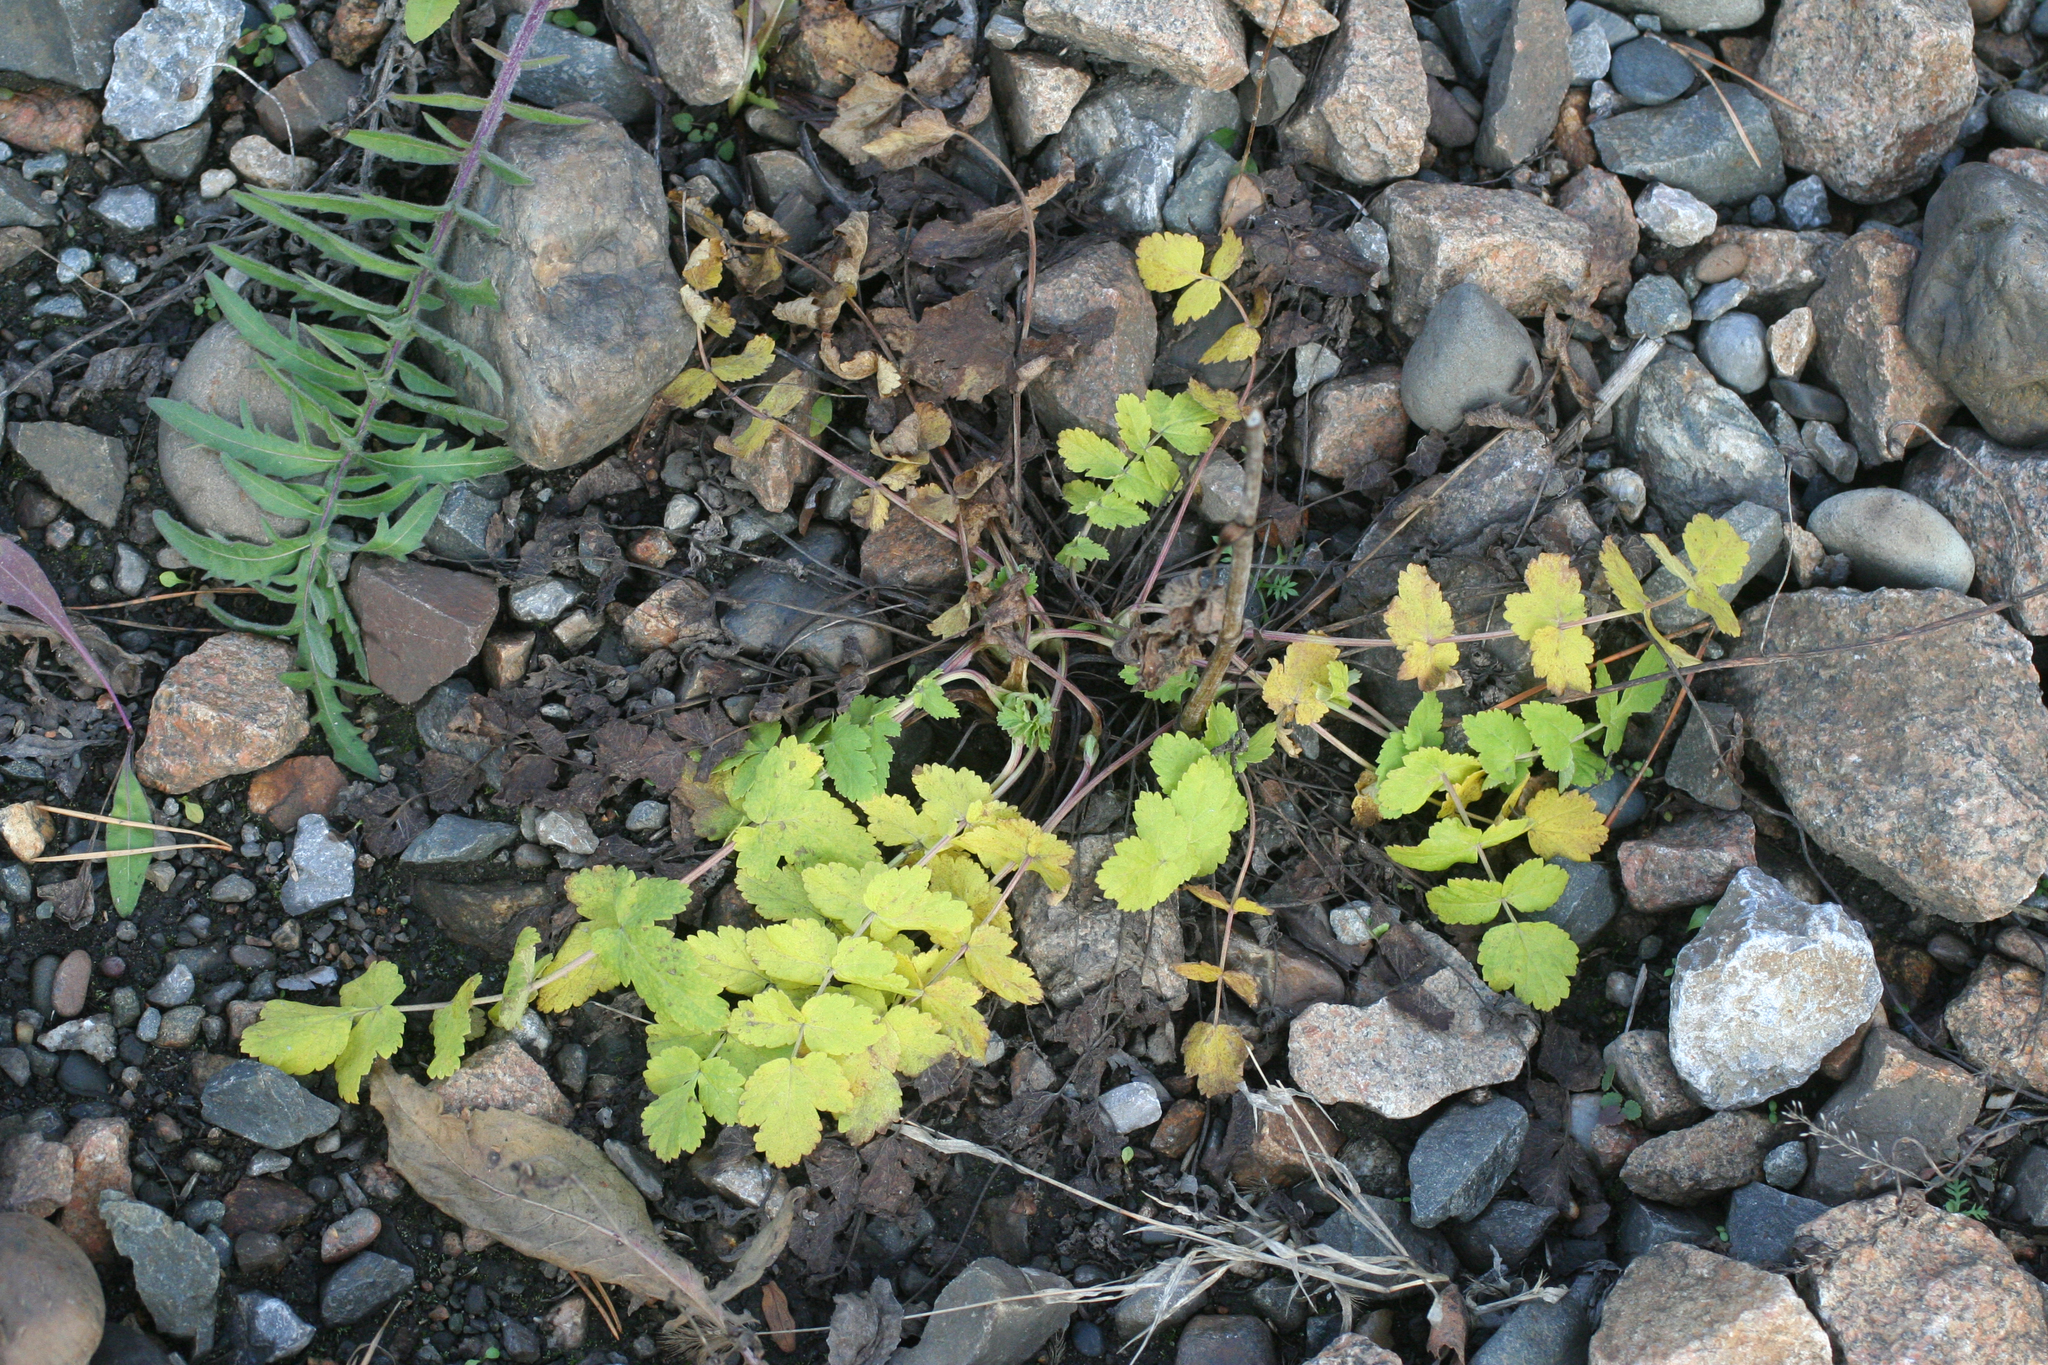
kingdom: Plantae
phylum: Tracheophyta
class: Magnoliopsida
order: Apiales
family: Apiaceae
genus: Pimpinella
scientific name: Pimpinella saxifraga
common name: Burnet-saxifrage
